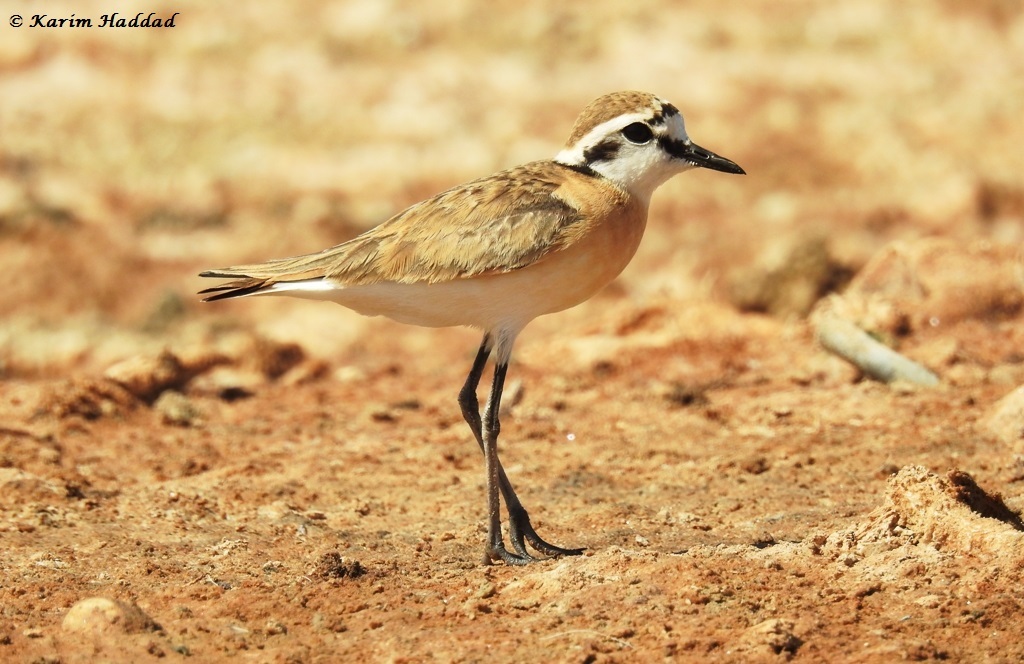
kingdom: Animalia
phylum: Chordata
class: Aves
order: Charadriiformes
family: Charadriidae
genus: Anarhynchus
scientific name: Anarhynchus
